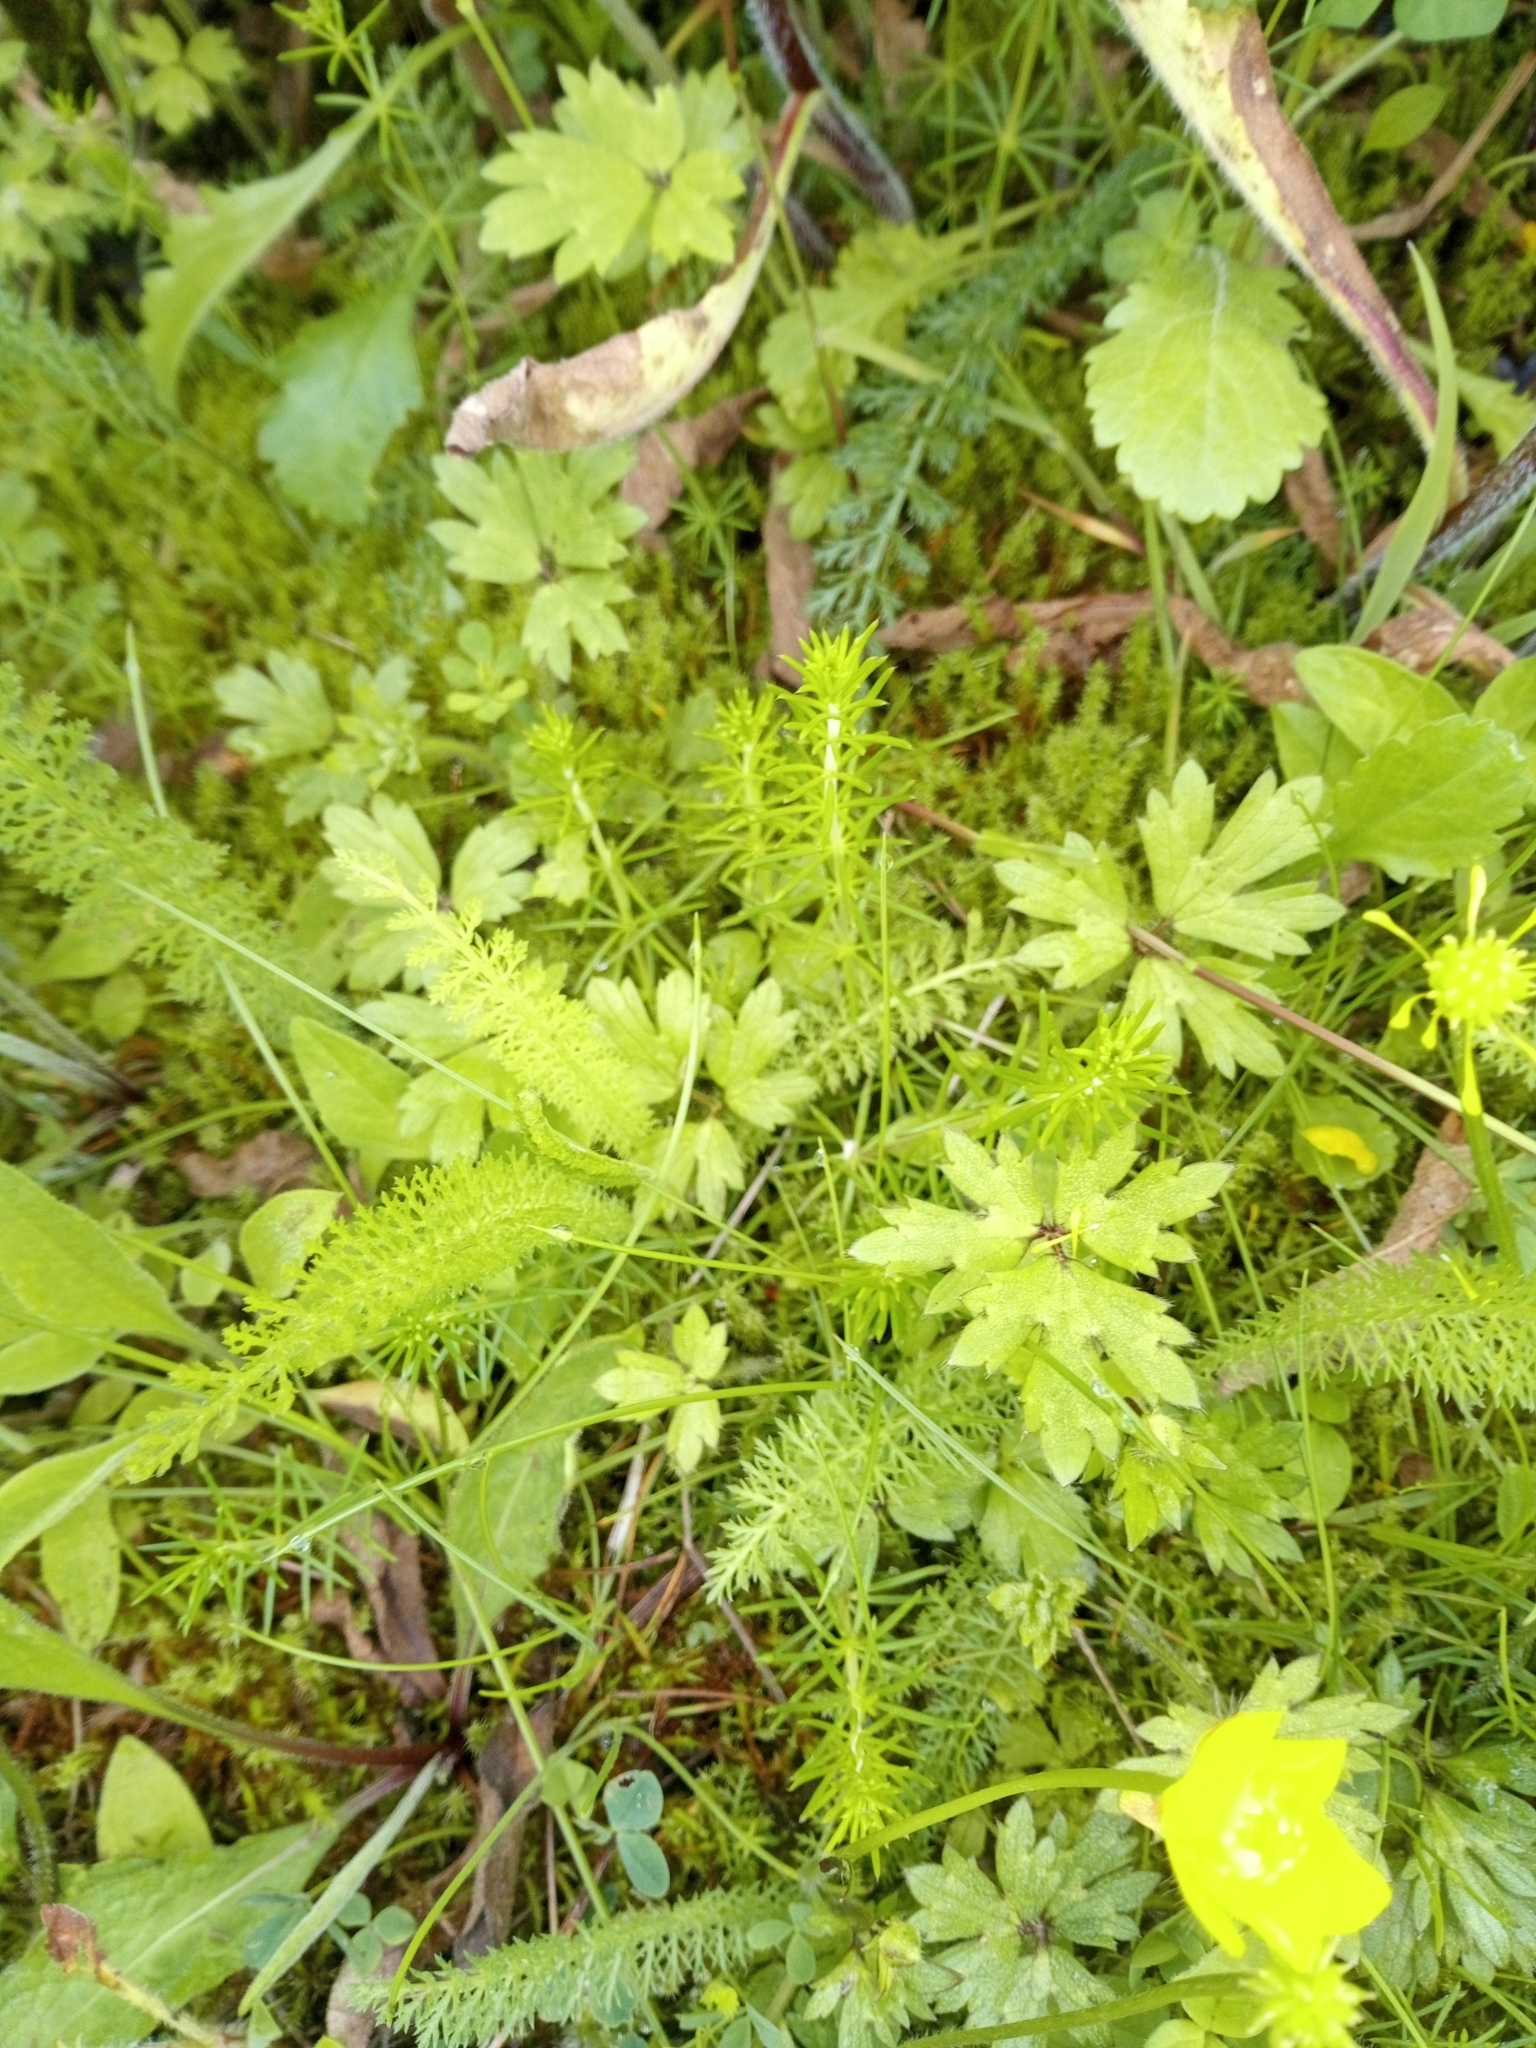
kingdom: Plantae
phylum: Tracheophyta
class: Magnoliopsida
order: Asterales
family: Asteraceae
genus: Achillea
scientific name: Achillea millefolium
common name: Yarrow
